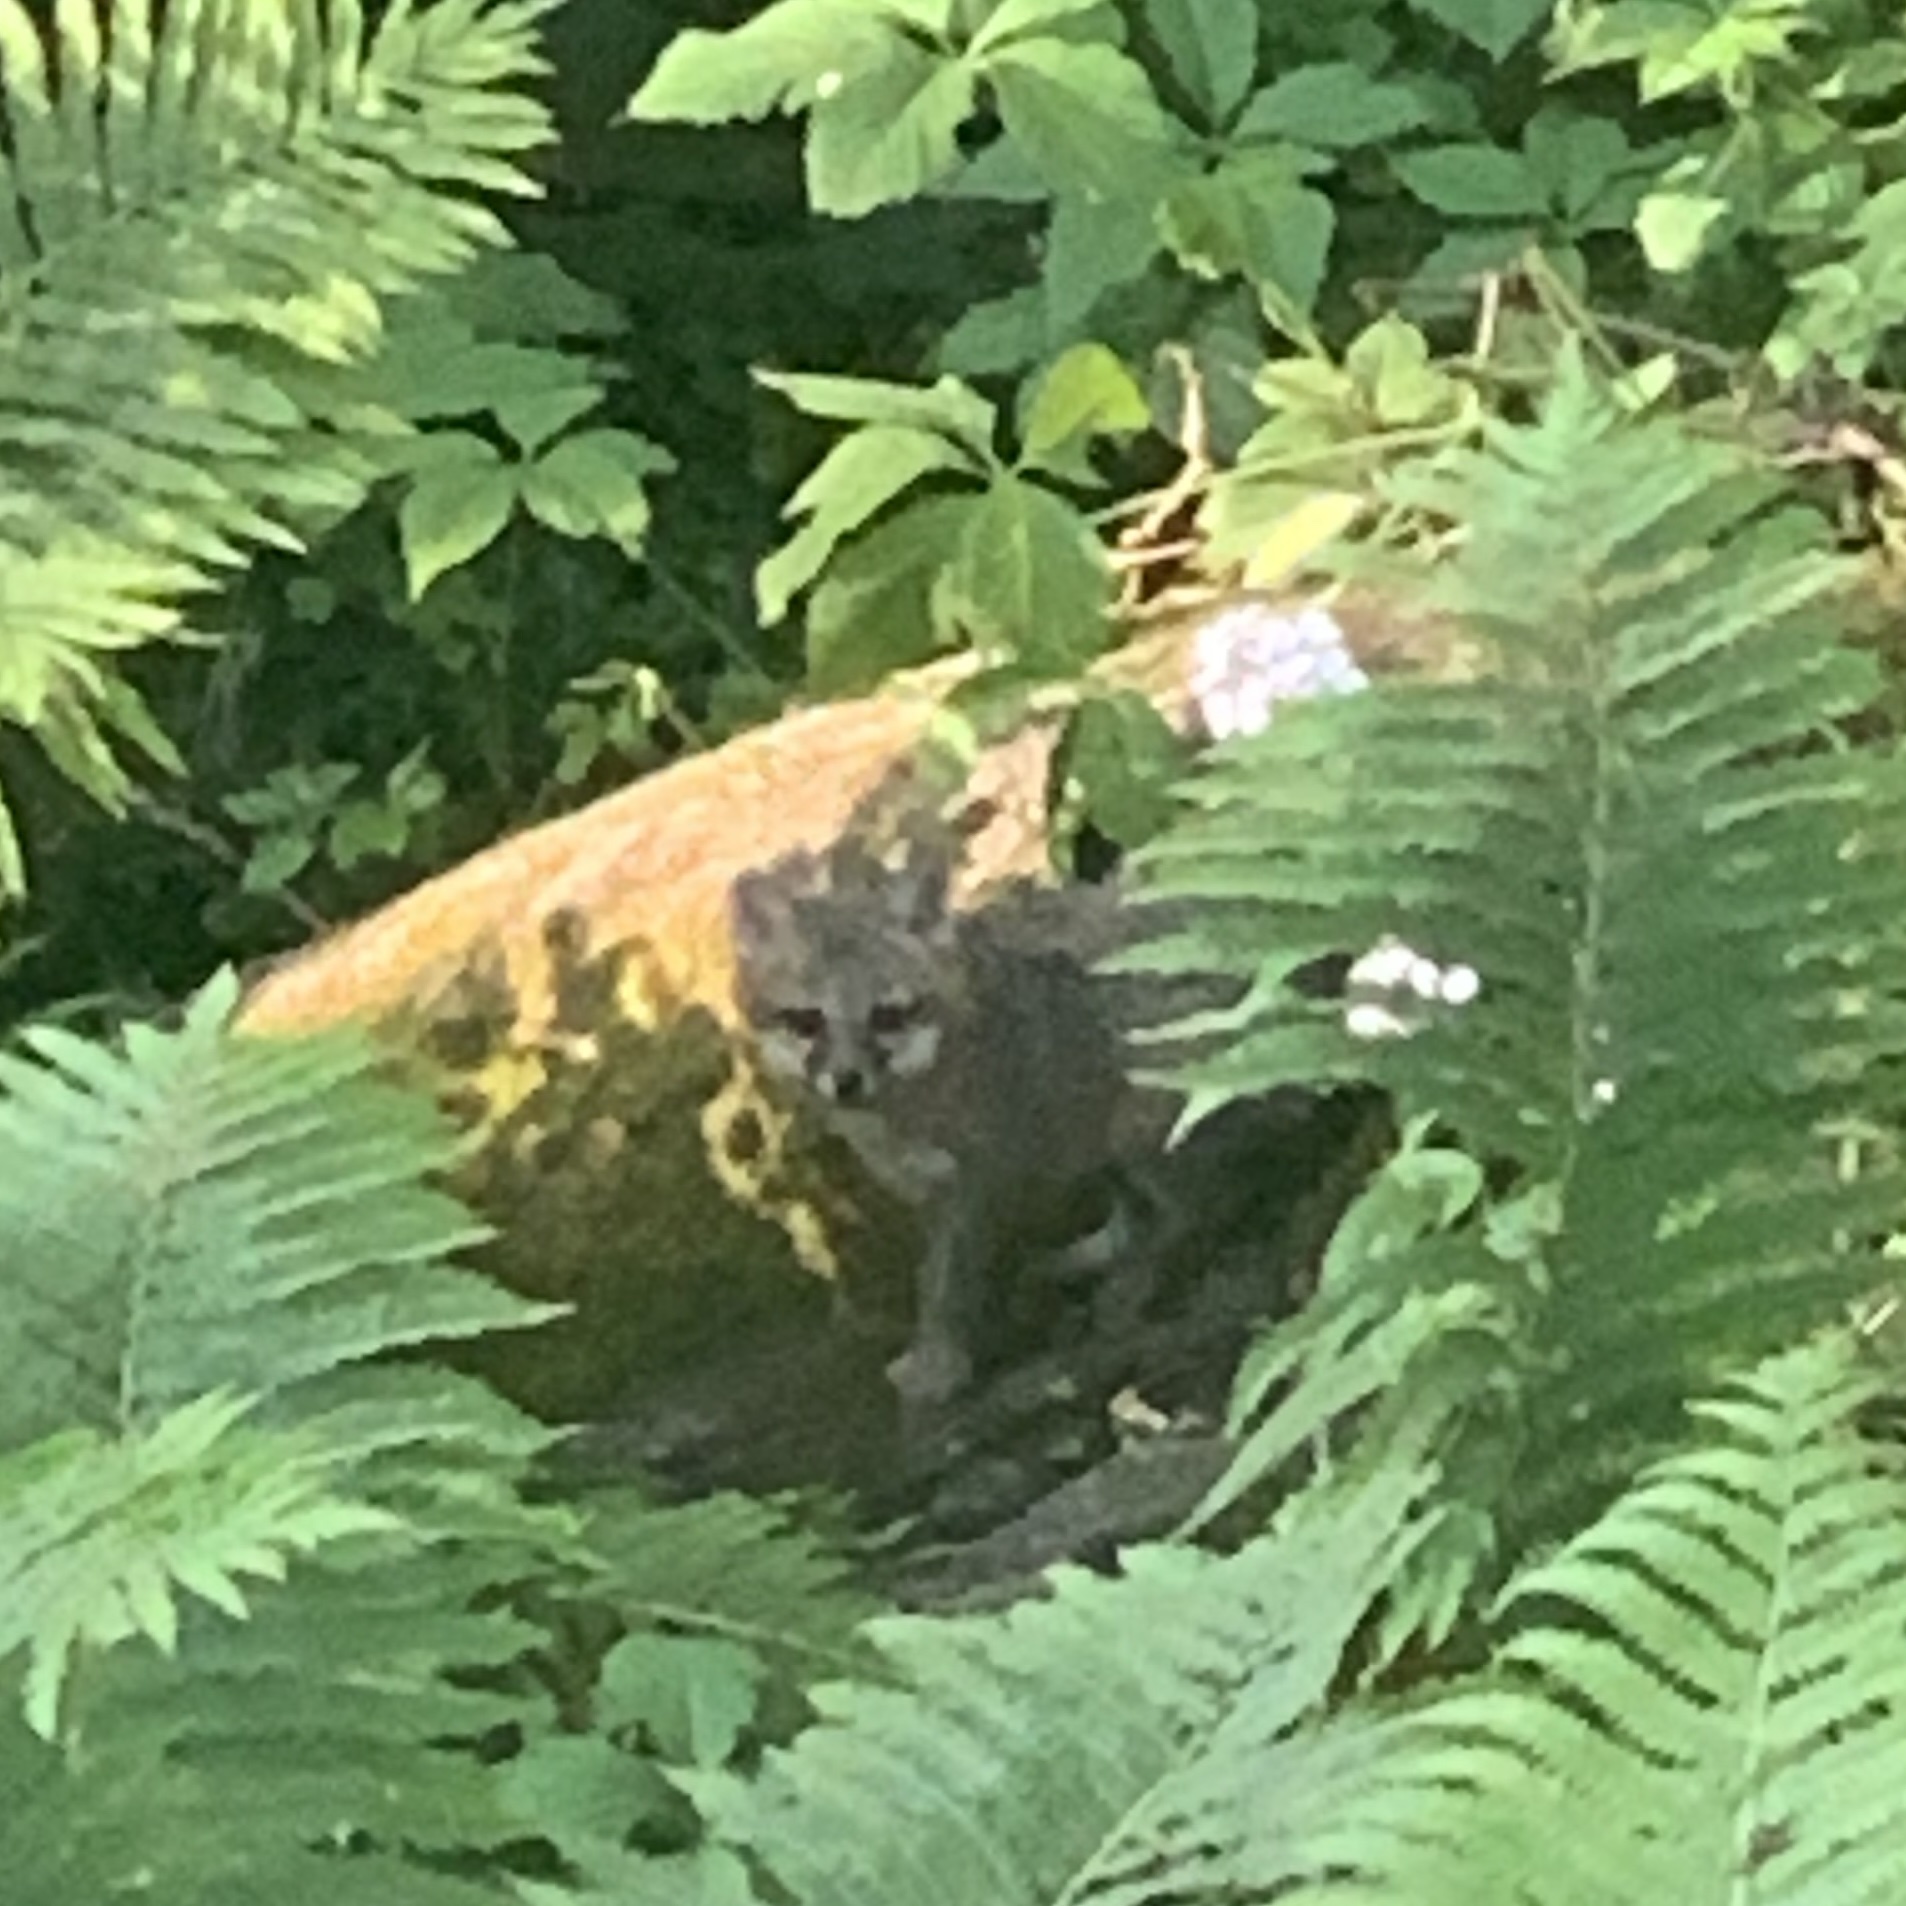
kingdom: Animalia
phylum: Chordata
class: Mammalia
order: Carnivora
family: Canidae
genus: Urocyon
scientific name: Urocyon cinereoargenteus
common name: Gray fox
